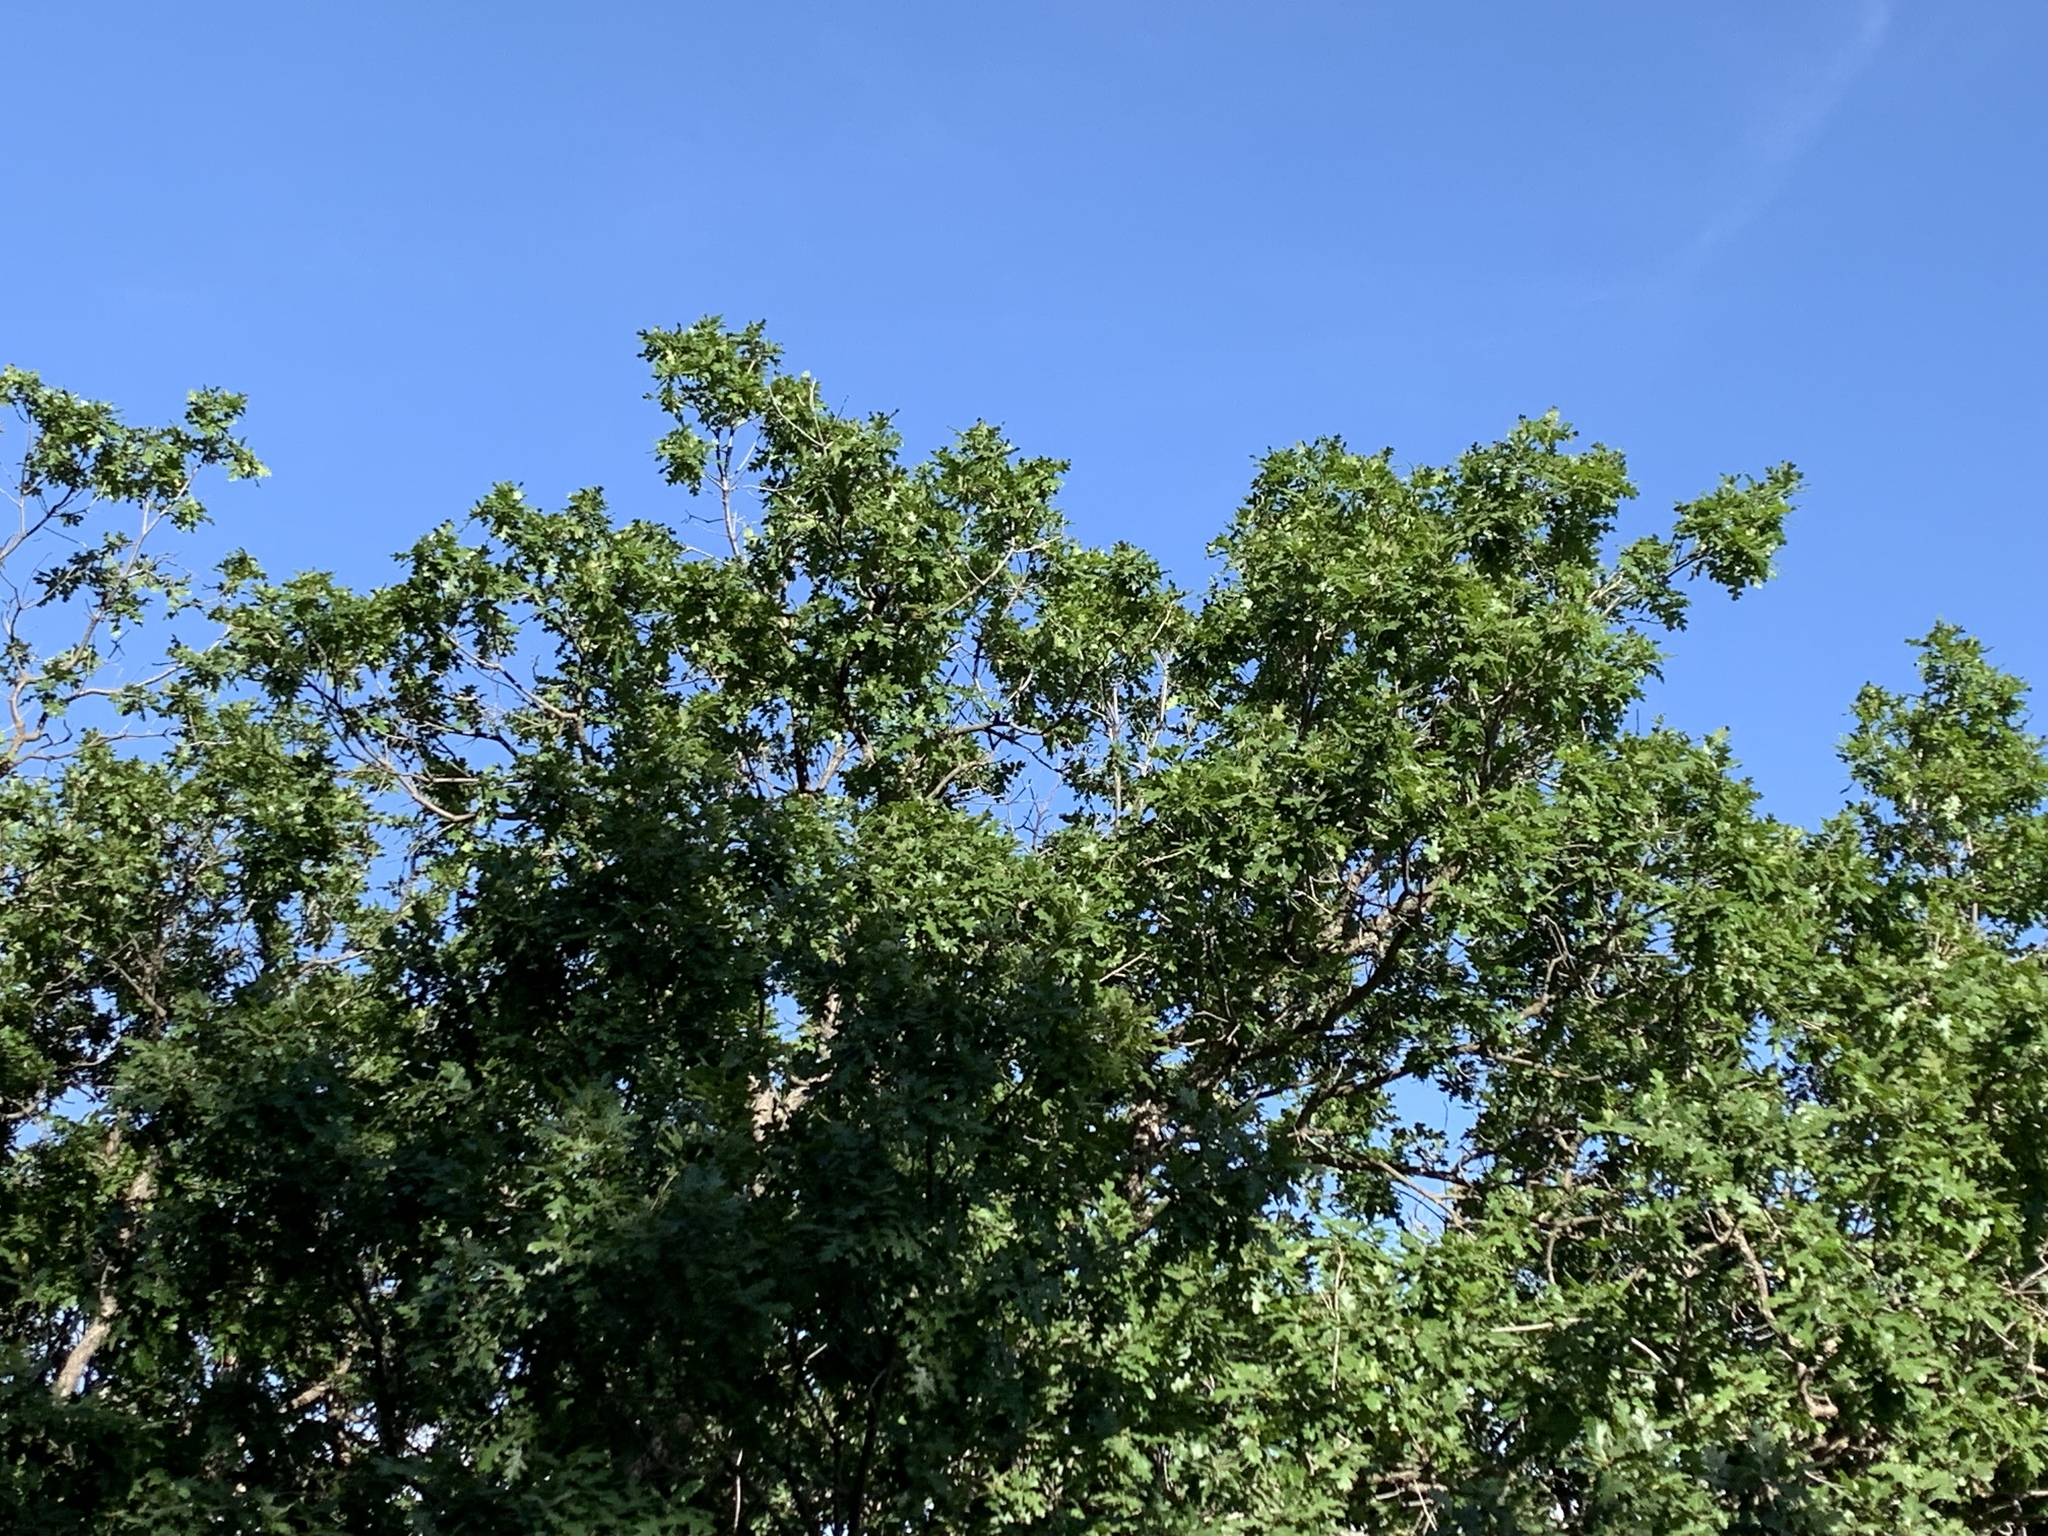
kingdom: Plantae
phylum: Tracheophyta
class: Magnoliopsida
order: Fagales
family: Fagaceae
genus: Quercus
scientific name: Quercus gambelii
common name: Gambel oak
